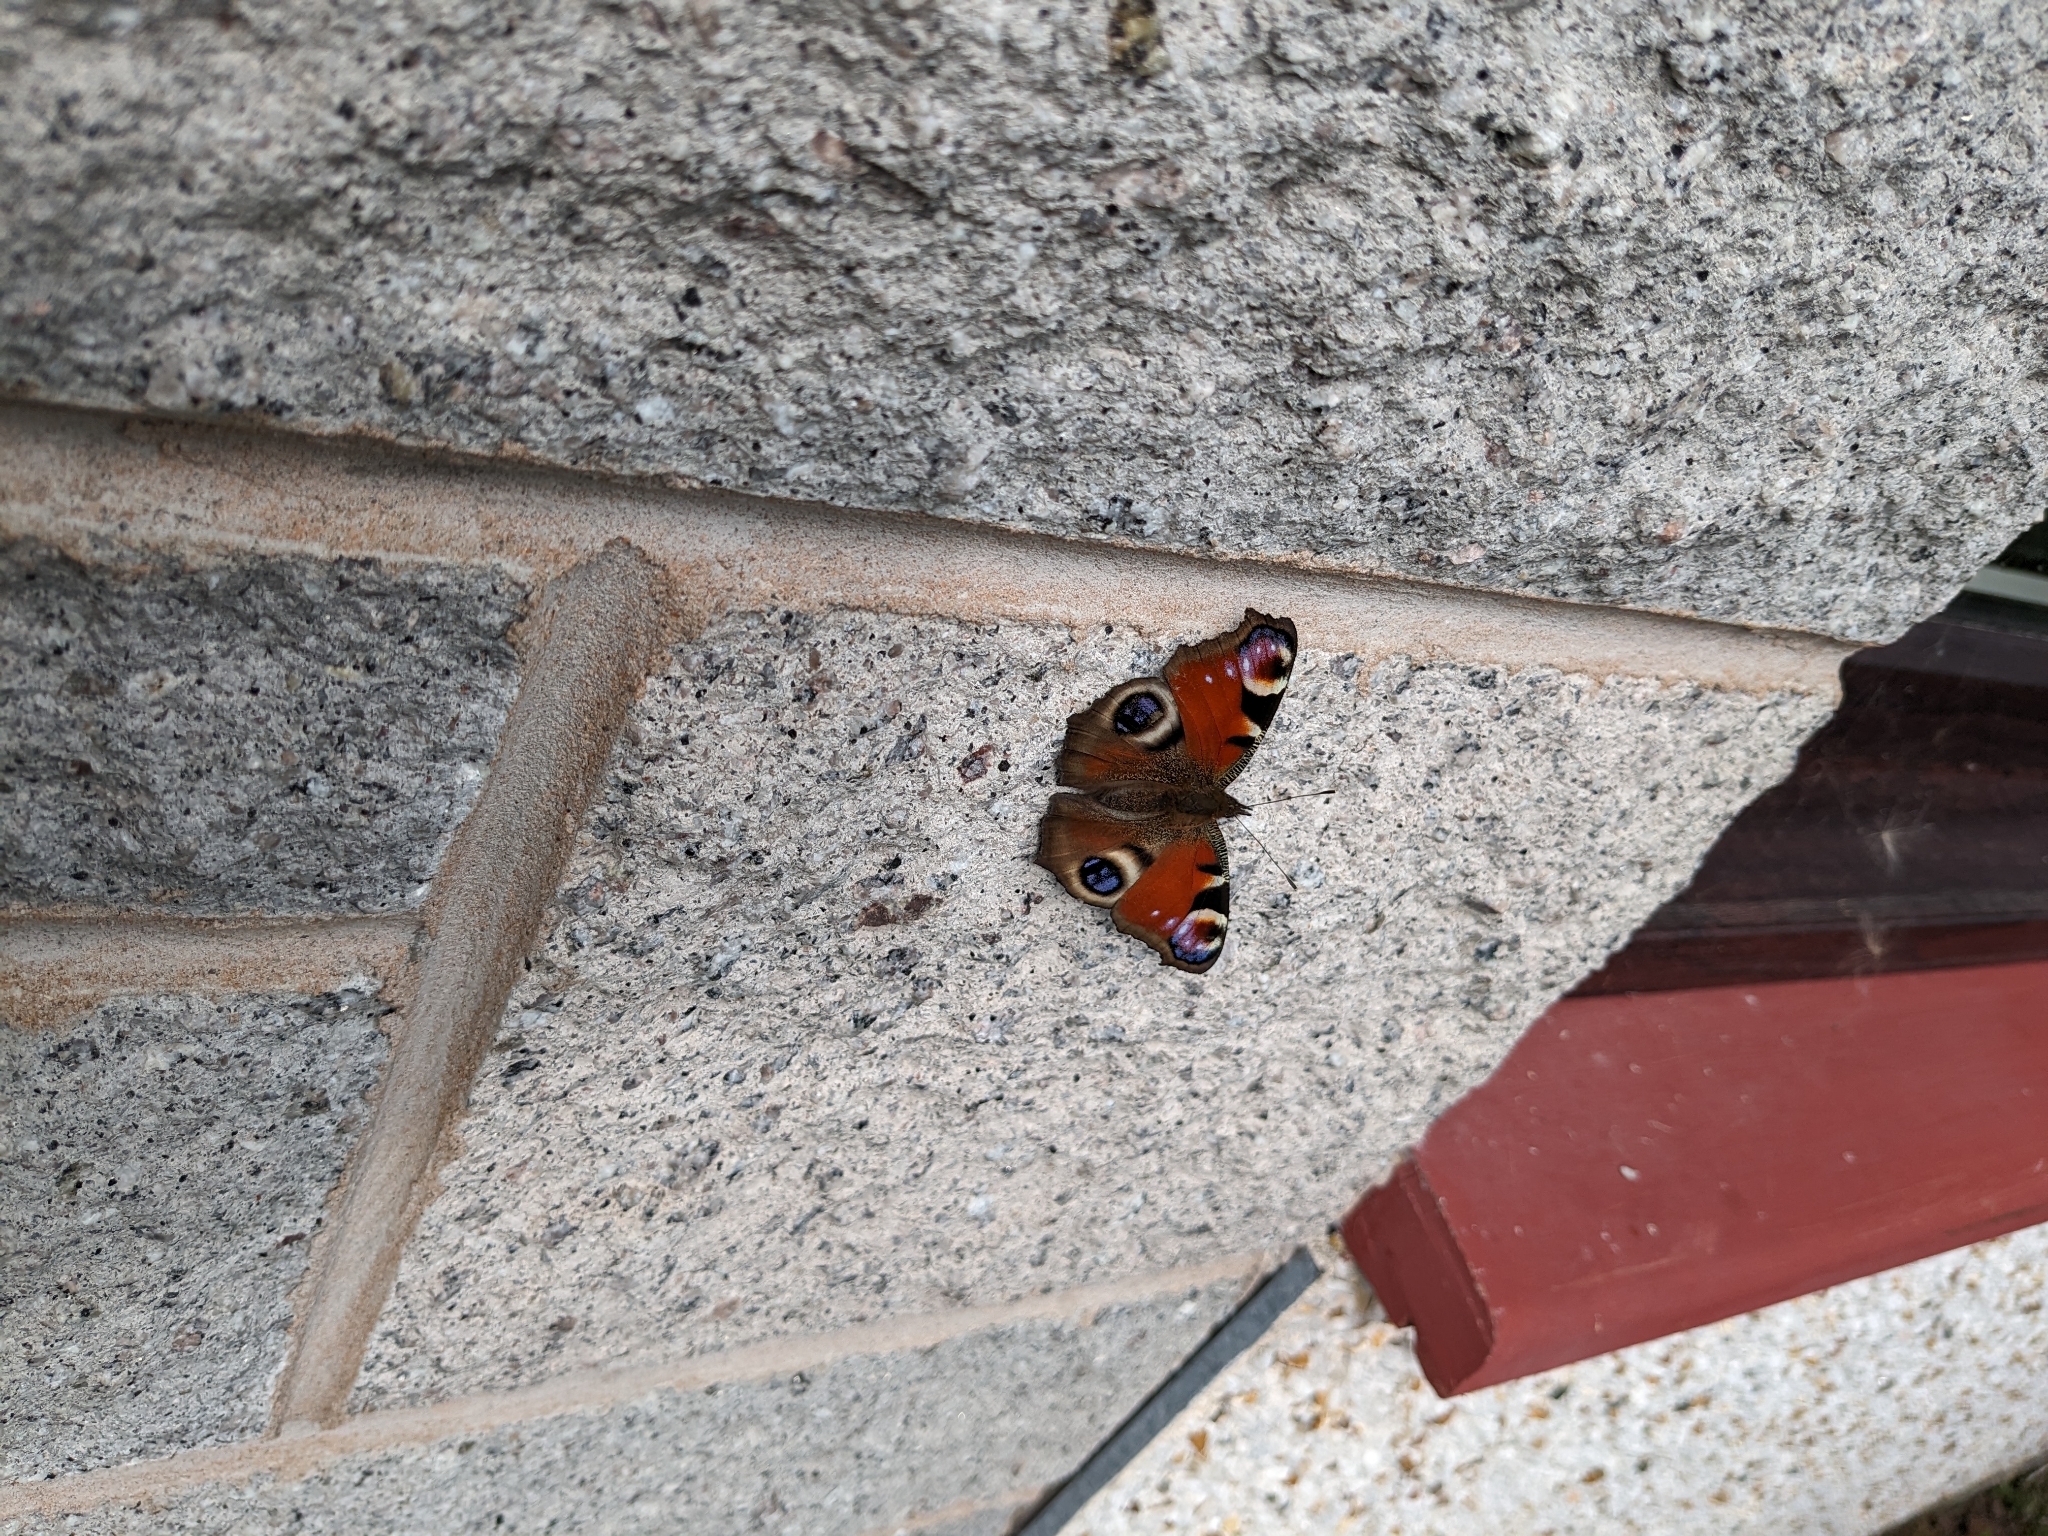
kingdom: Animalia
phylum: Arthropoda
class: Insecta
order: Lepidoptera
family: Nymphalidae
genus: Aglais
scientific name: Aglais io
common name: Peacock
